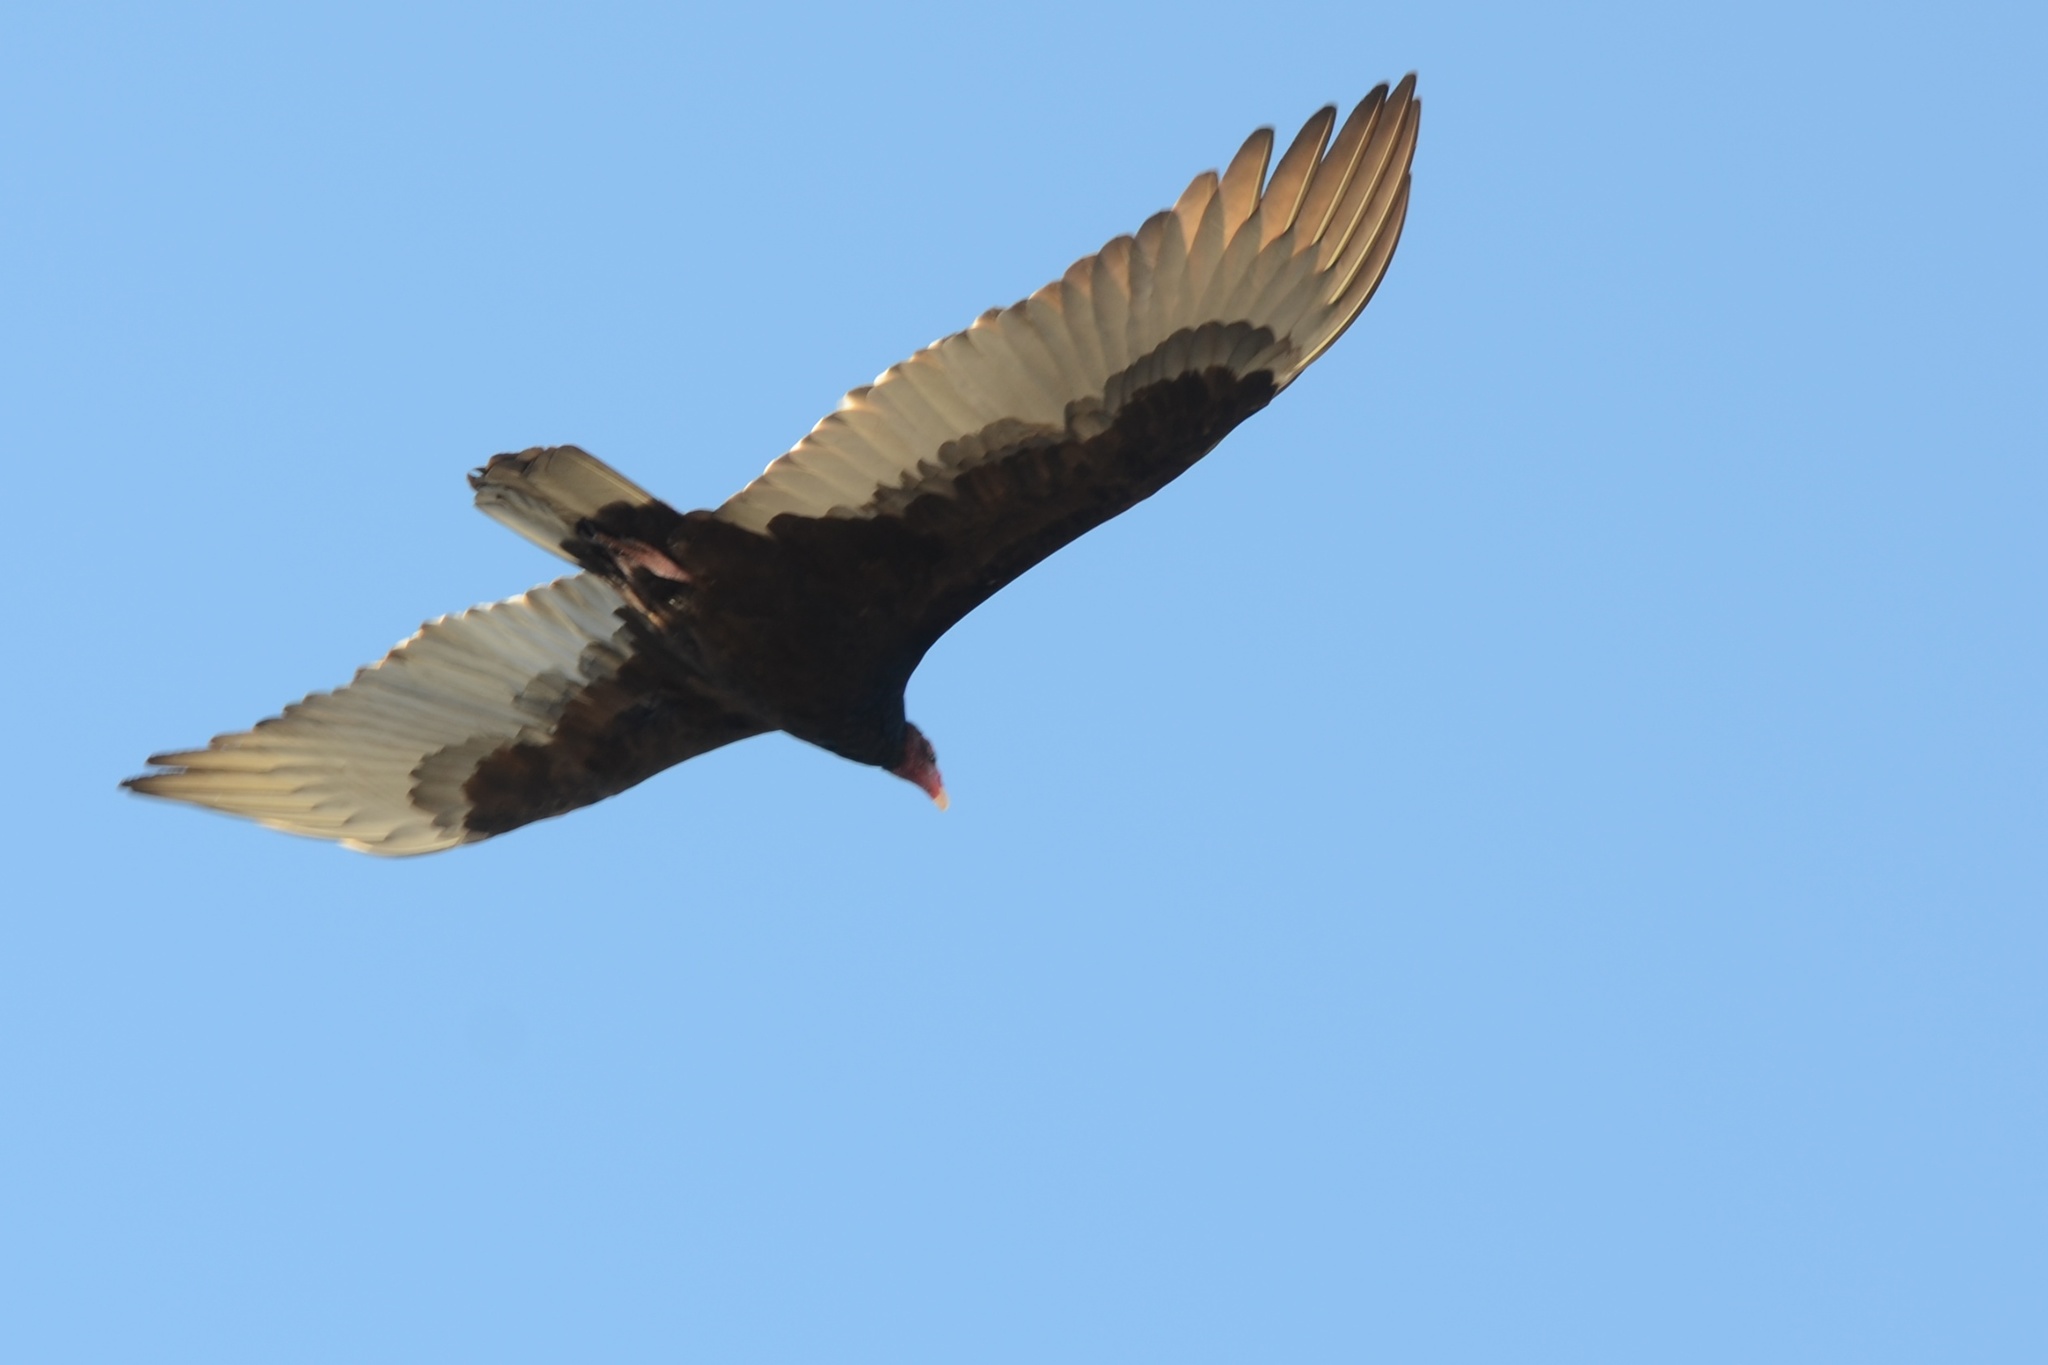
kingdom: Animalia
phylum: Chordata
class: Aves
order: Accipitriformes
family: Cathartidae
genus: Cathartes
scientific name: Cathartes aura
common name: Turkey vulture
